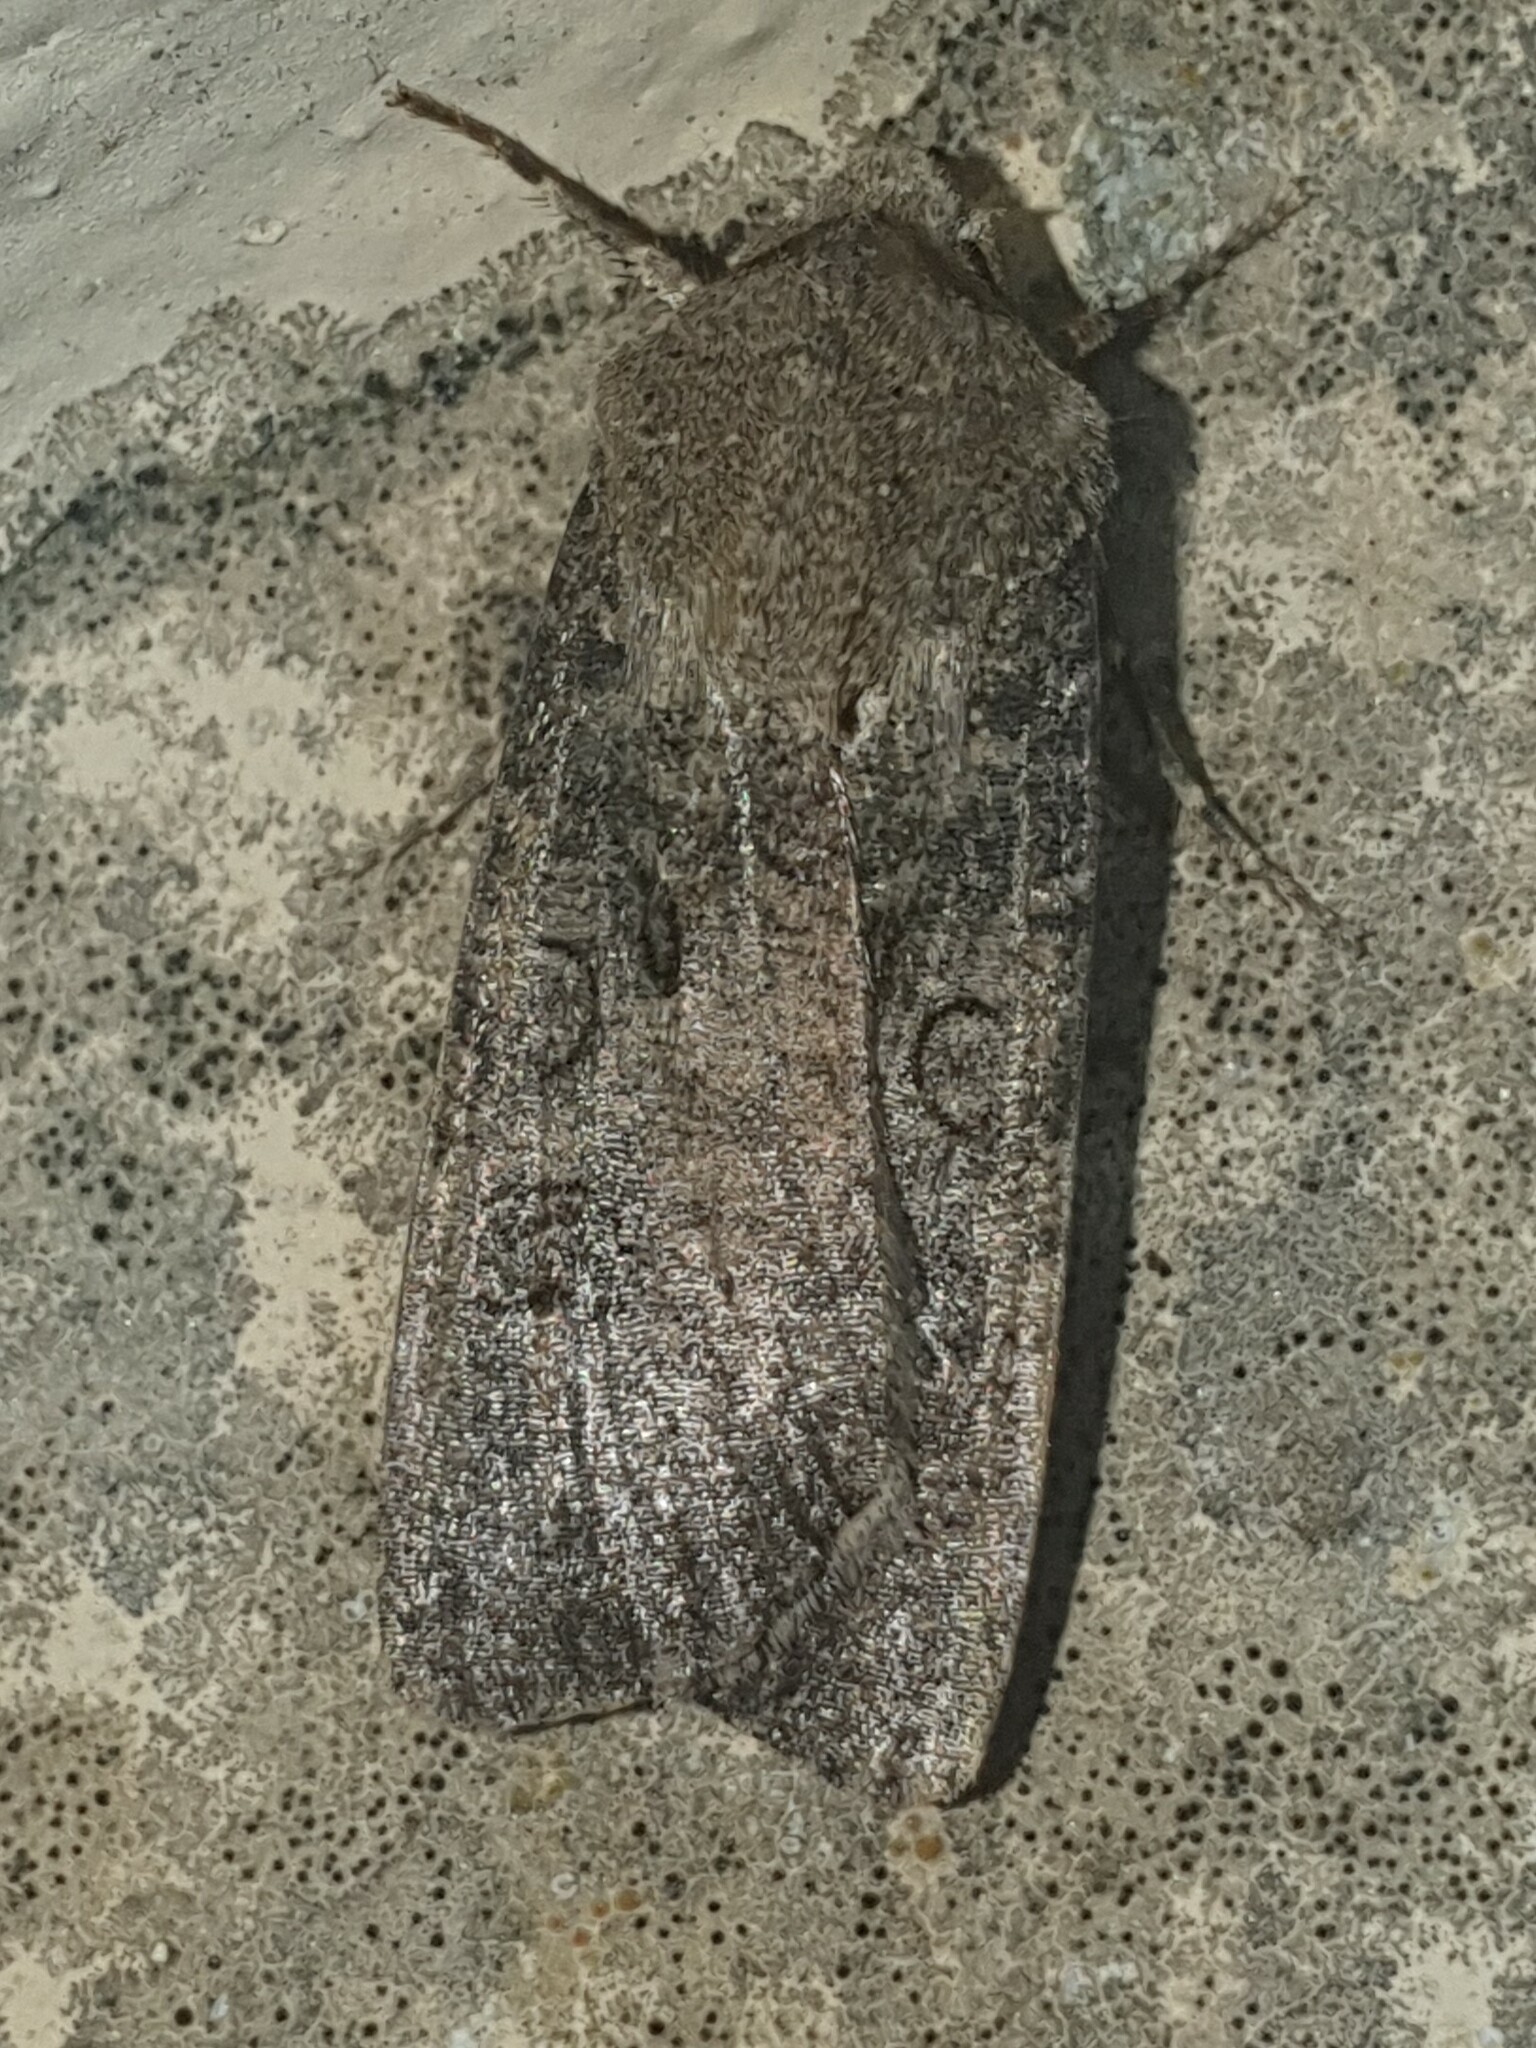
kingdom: Animalia
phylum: Arthropoda
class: Insecta
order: Lepidoptera
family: Noctuidae
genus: Agrotis
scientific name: Agrotis segetum
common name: Turnip moth
